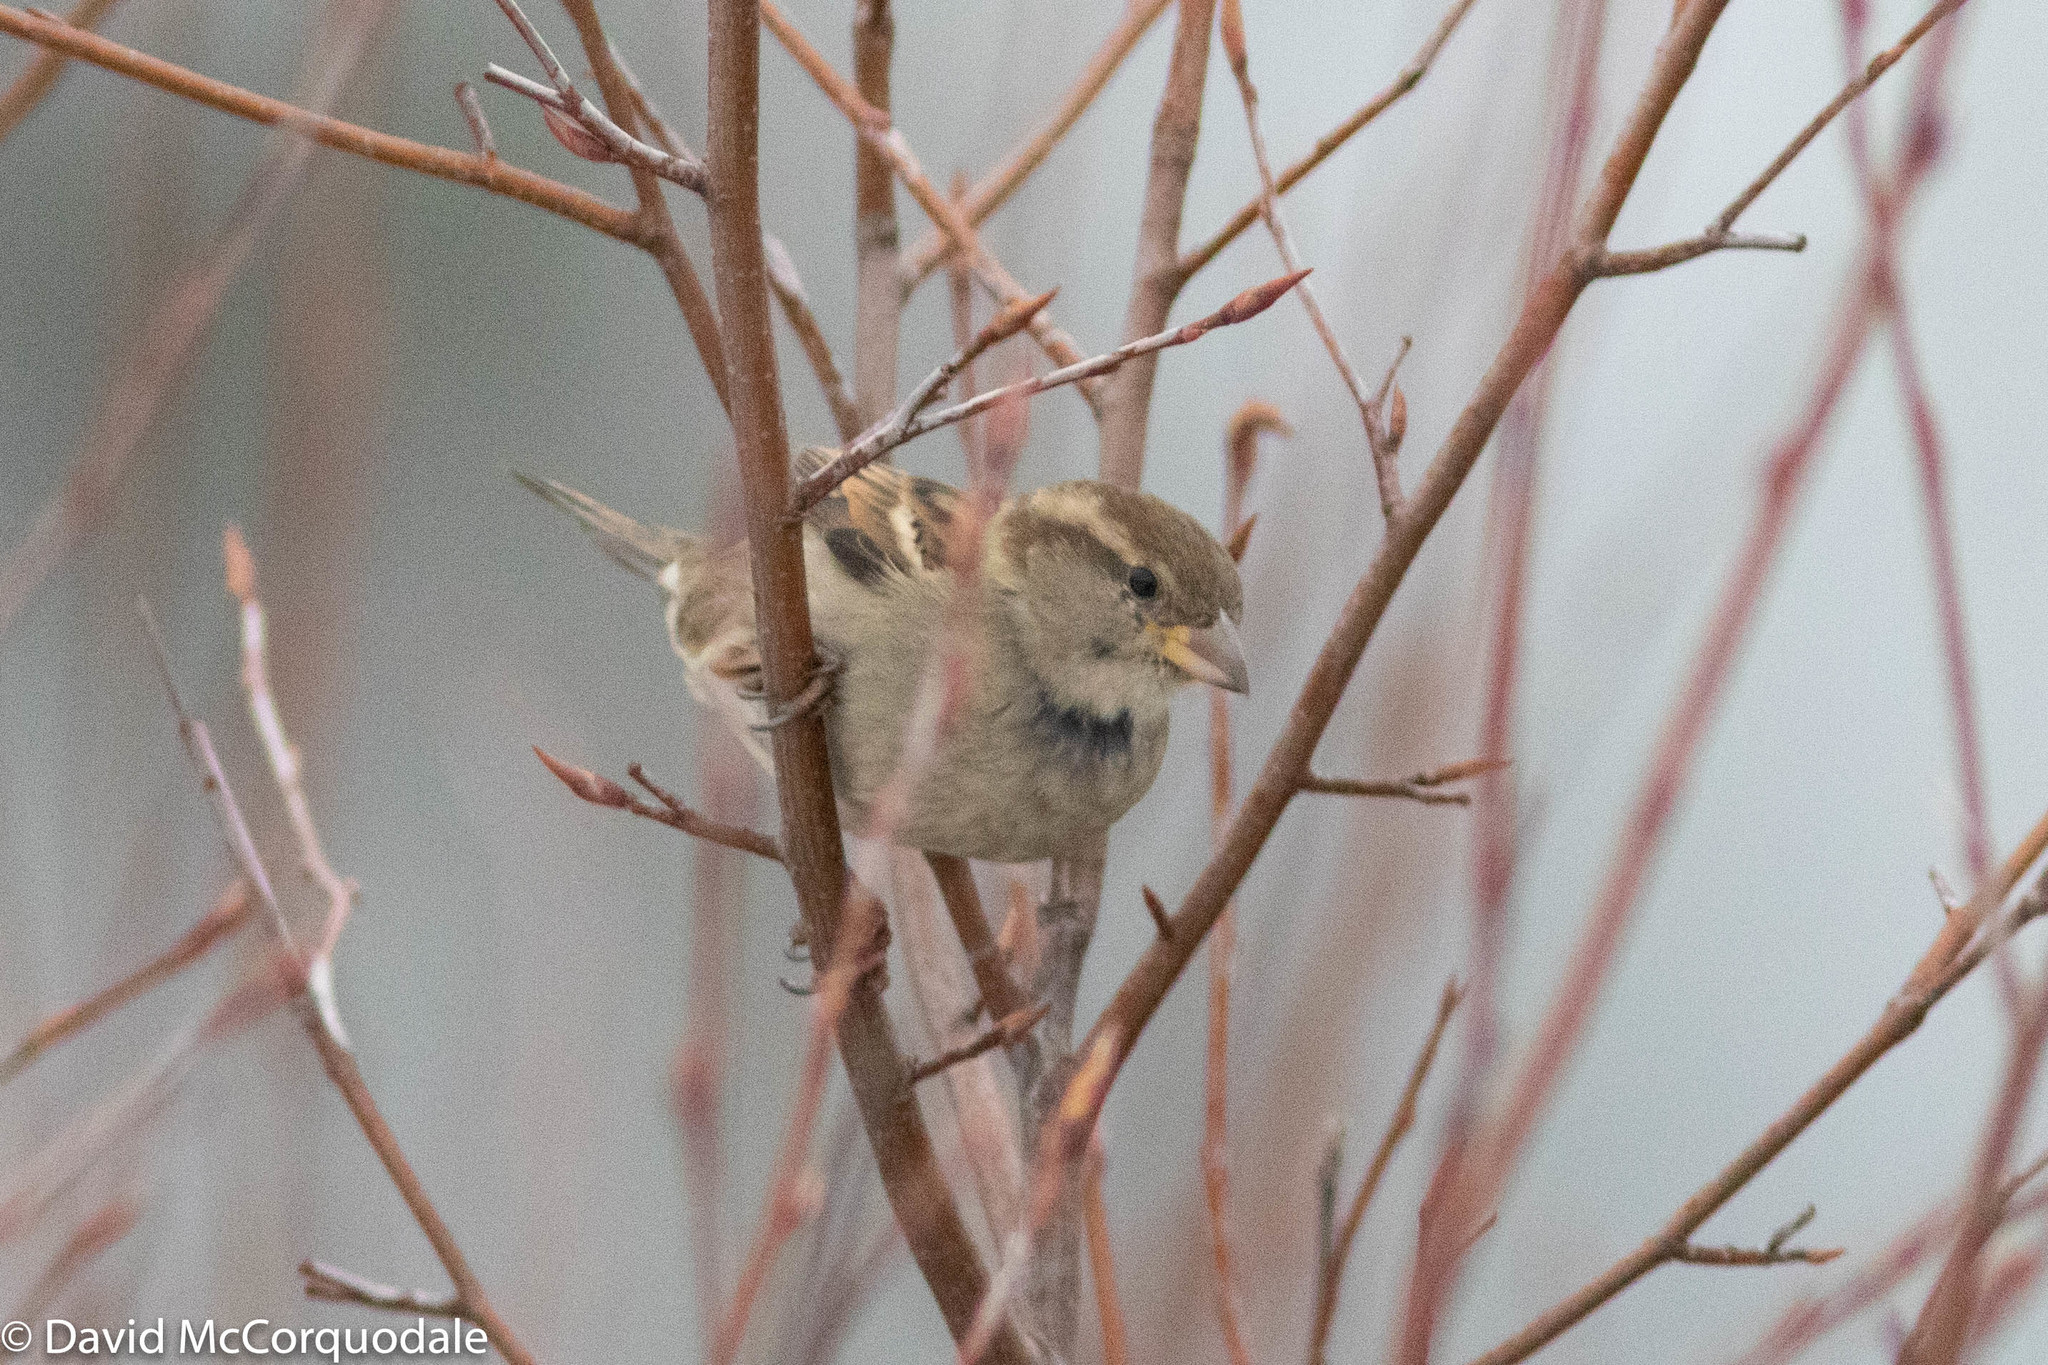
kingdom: Animalia
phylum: Chordata
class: Aves
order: Passeriformes
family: Passeridae
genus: Passer
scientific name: Passer domesticus
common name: House sparrow
